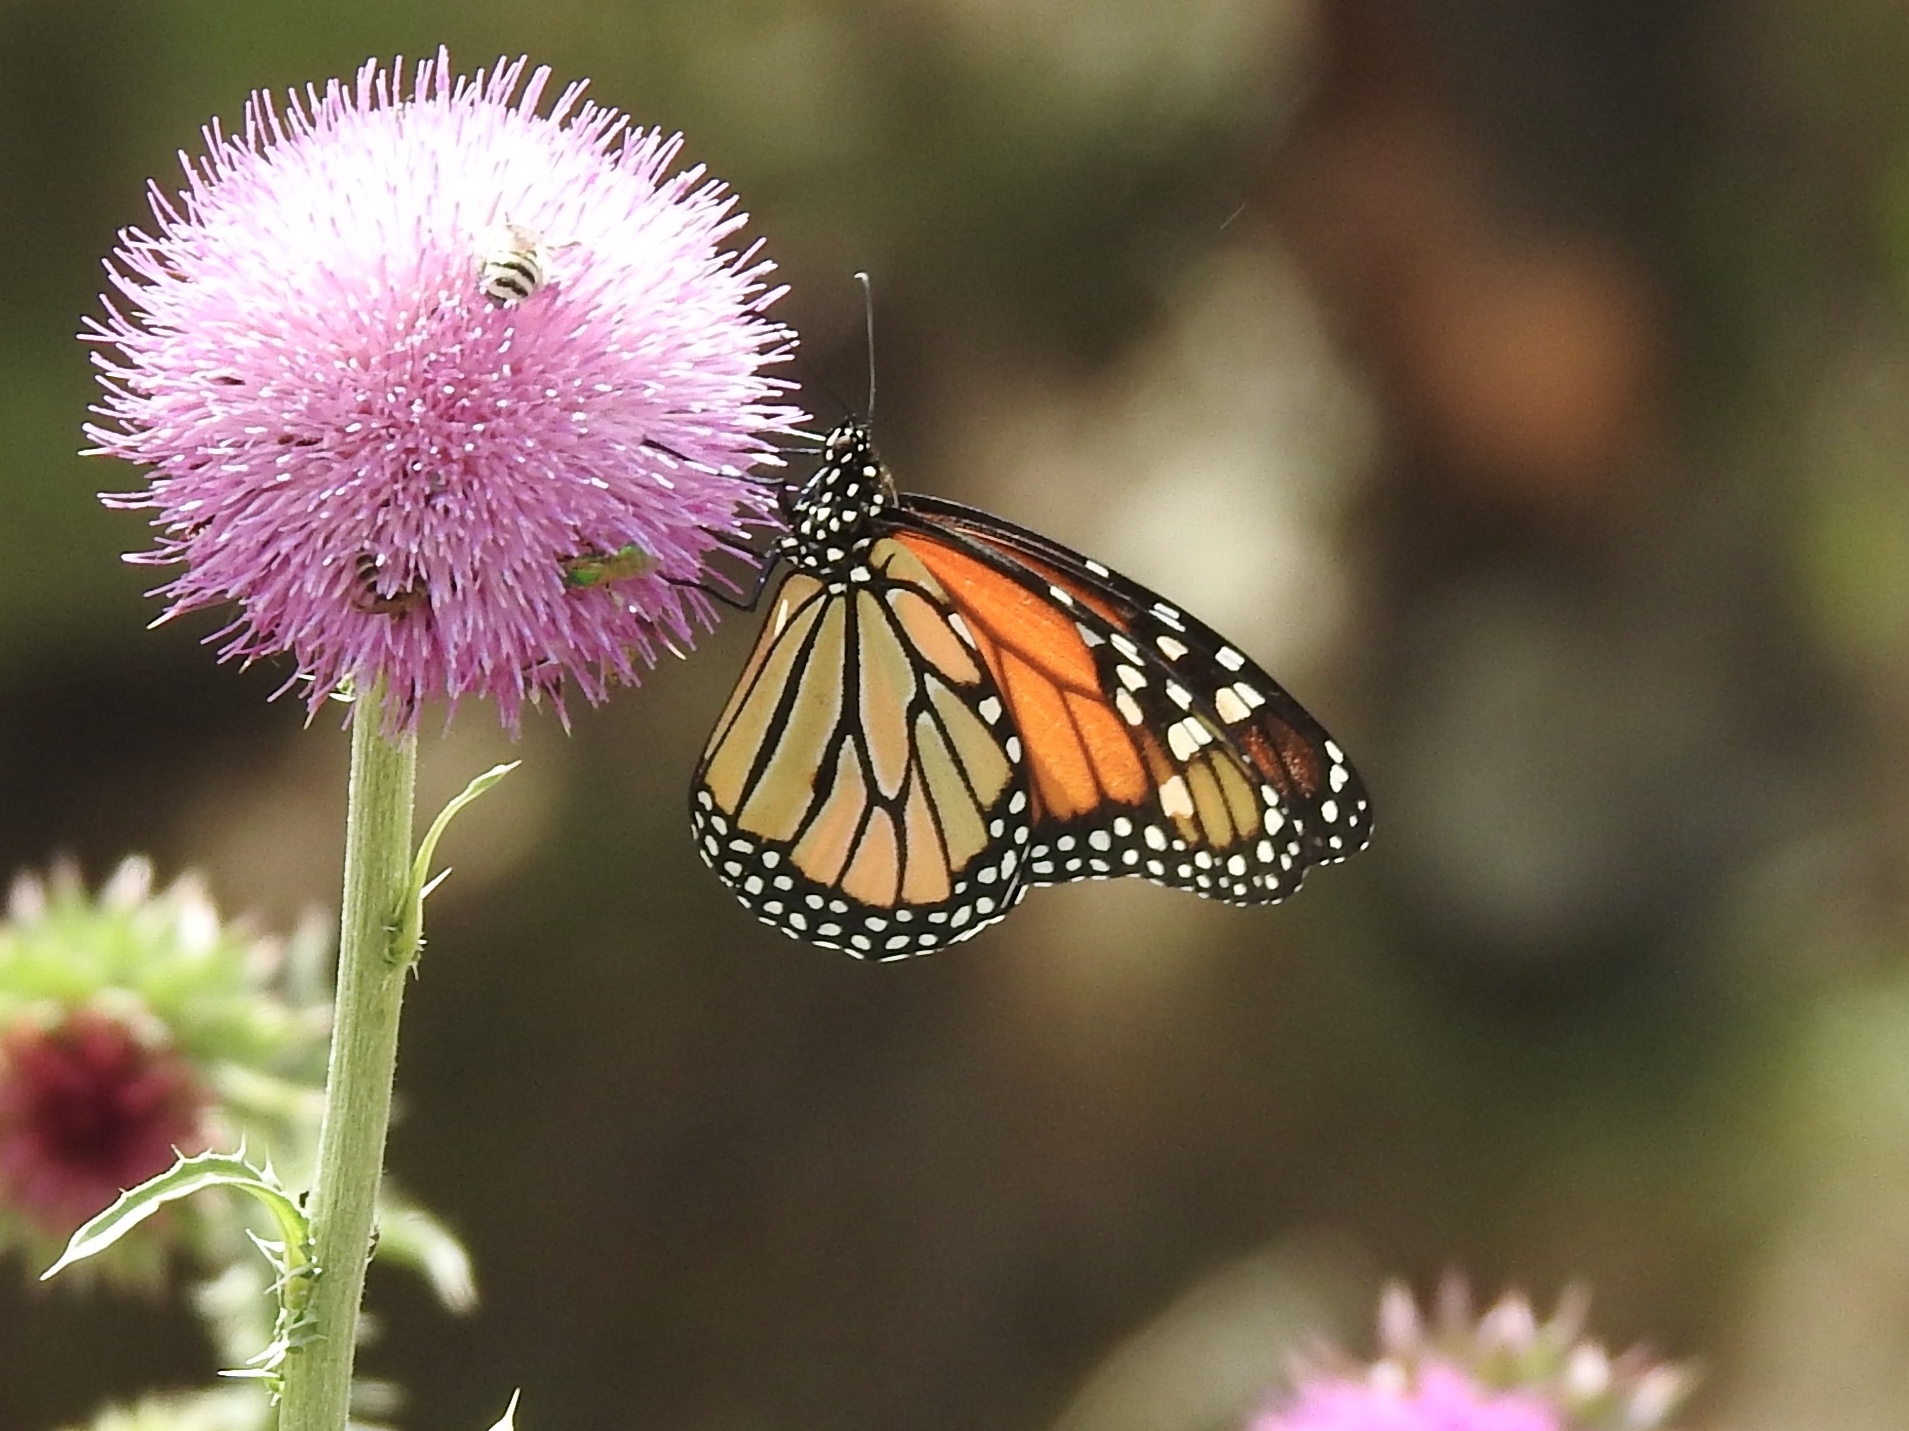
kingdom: Animalia
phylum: Arthropoda
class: Insecta
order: Lepidoptera
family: Nymphalidae
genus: Danaus
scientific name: Danaus plexippus
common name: Monarch
